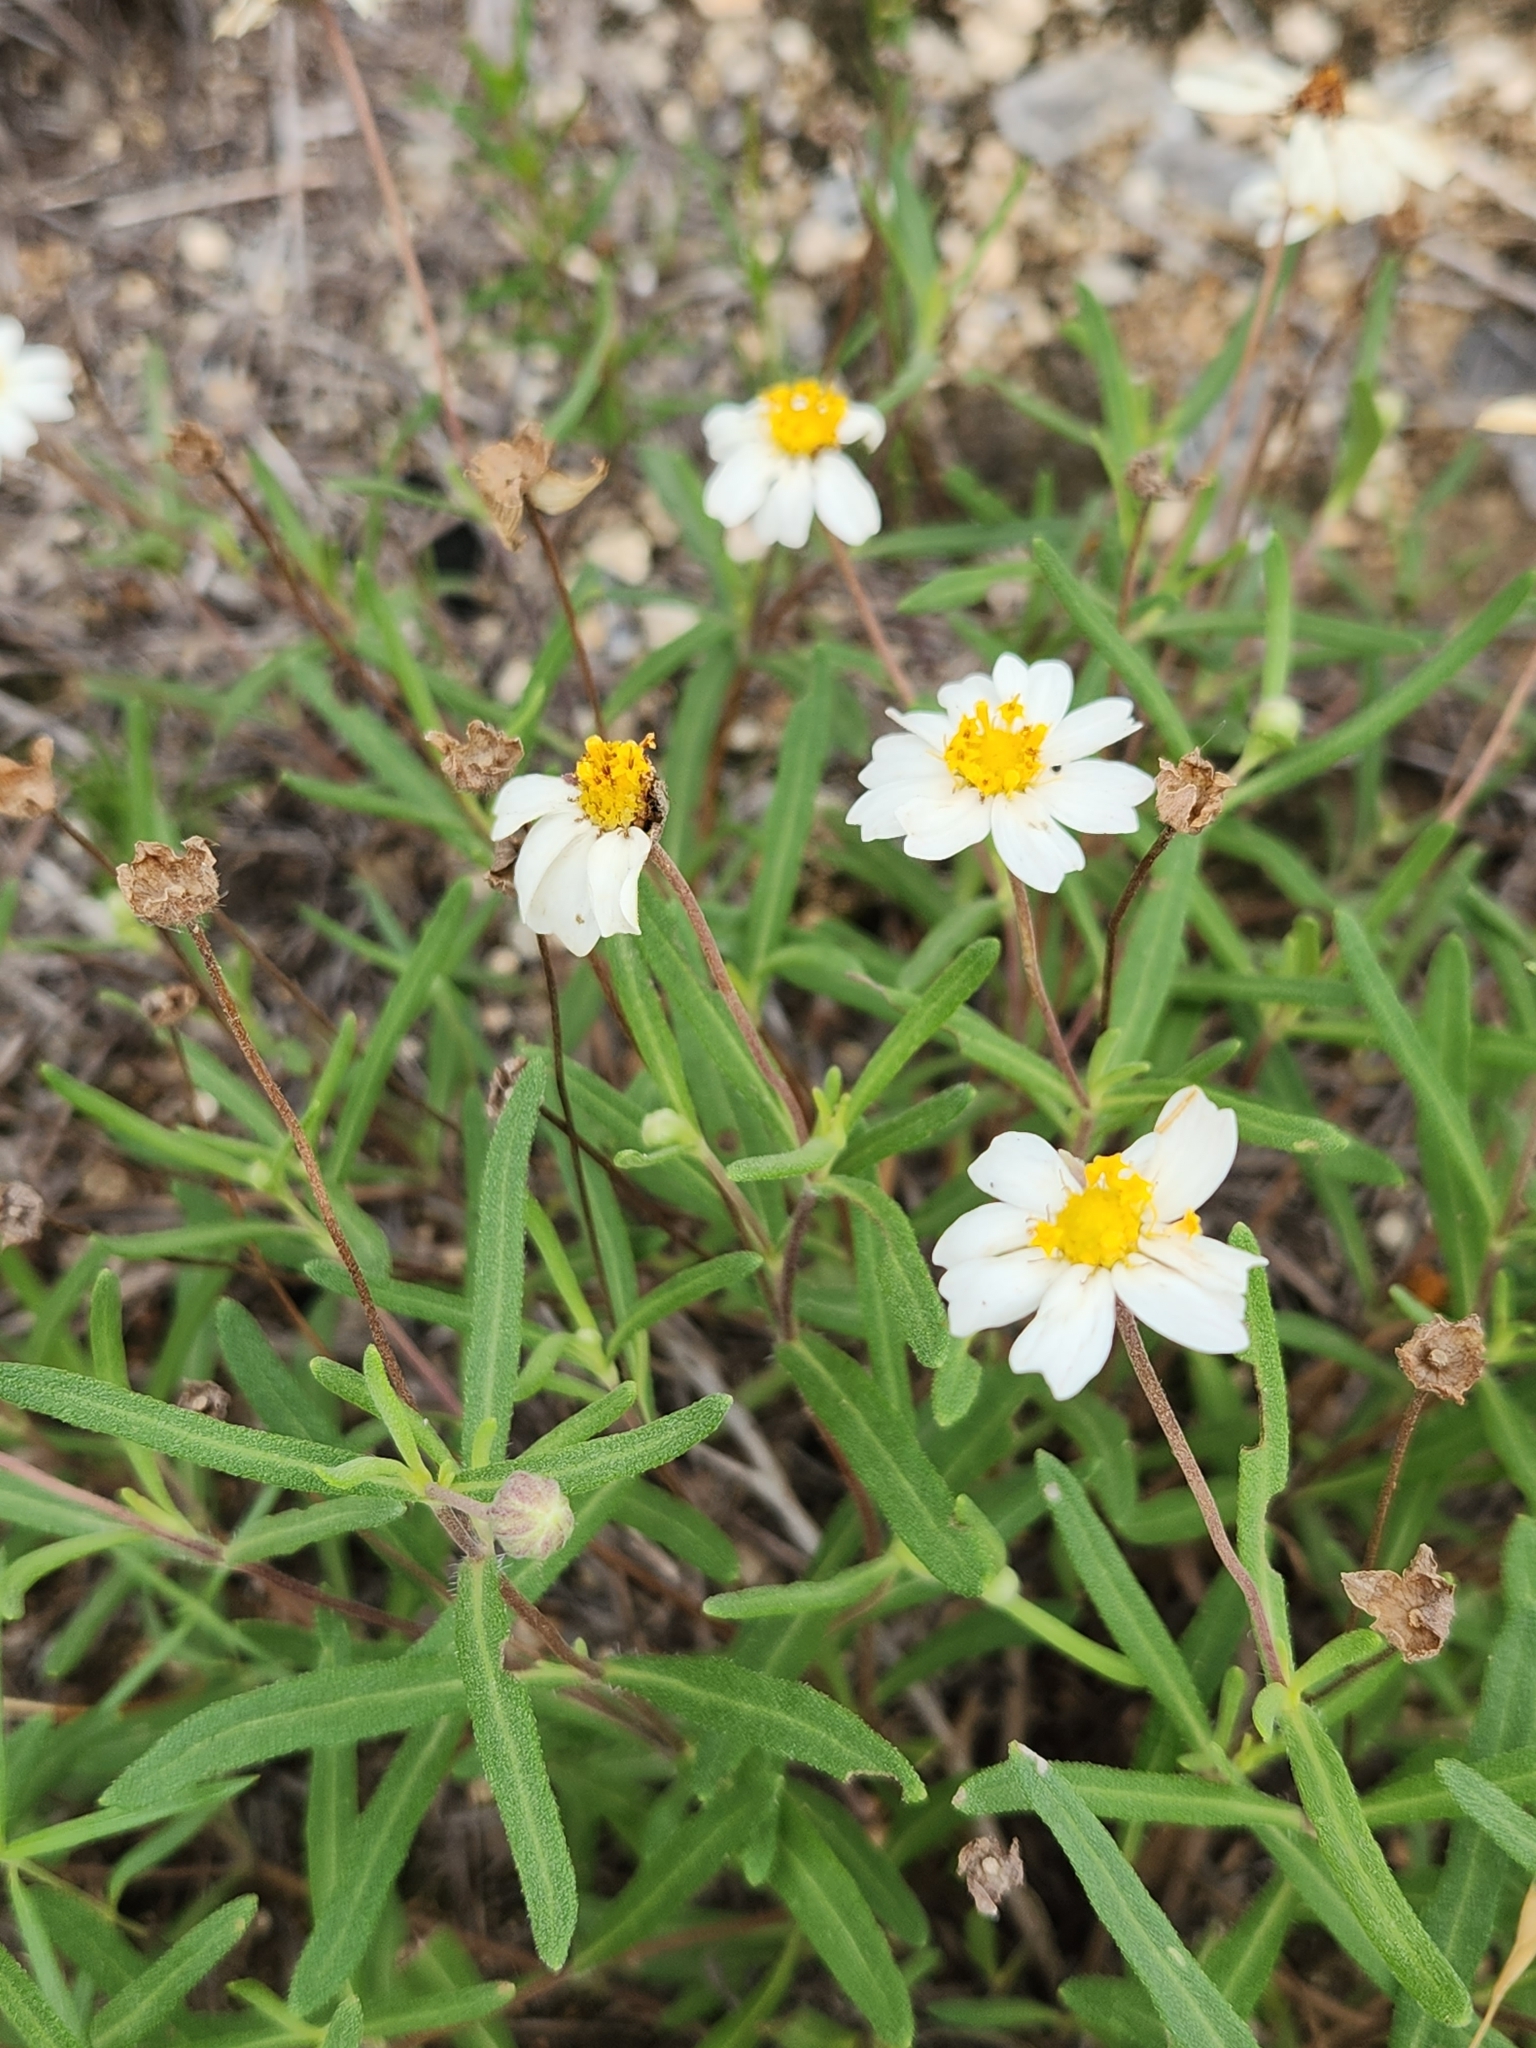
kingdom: Plantae
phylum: Tracheophyta
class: Magnoliopsida
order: Asterales
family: Asteraceae
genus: Melampodium
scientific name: Melampodium leucanthum
